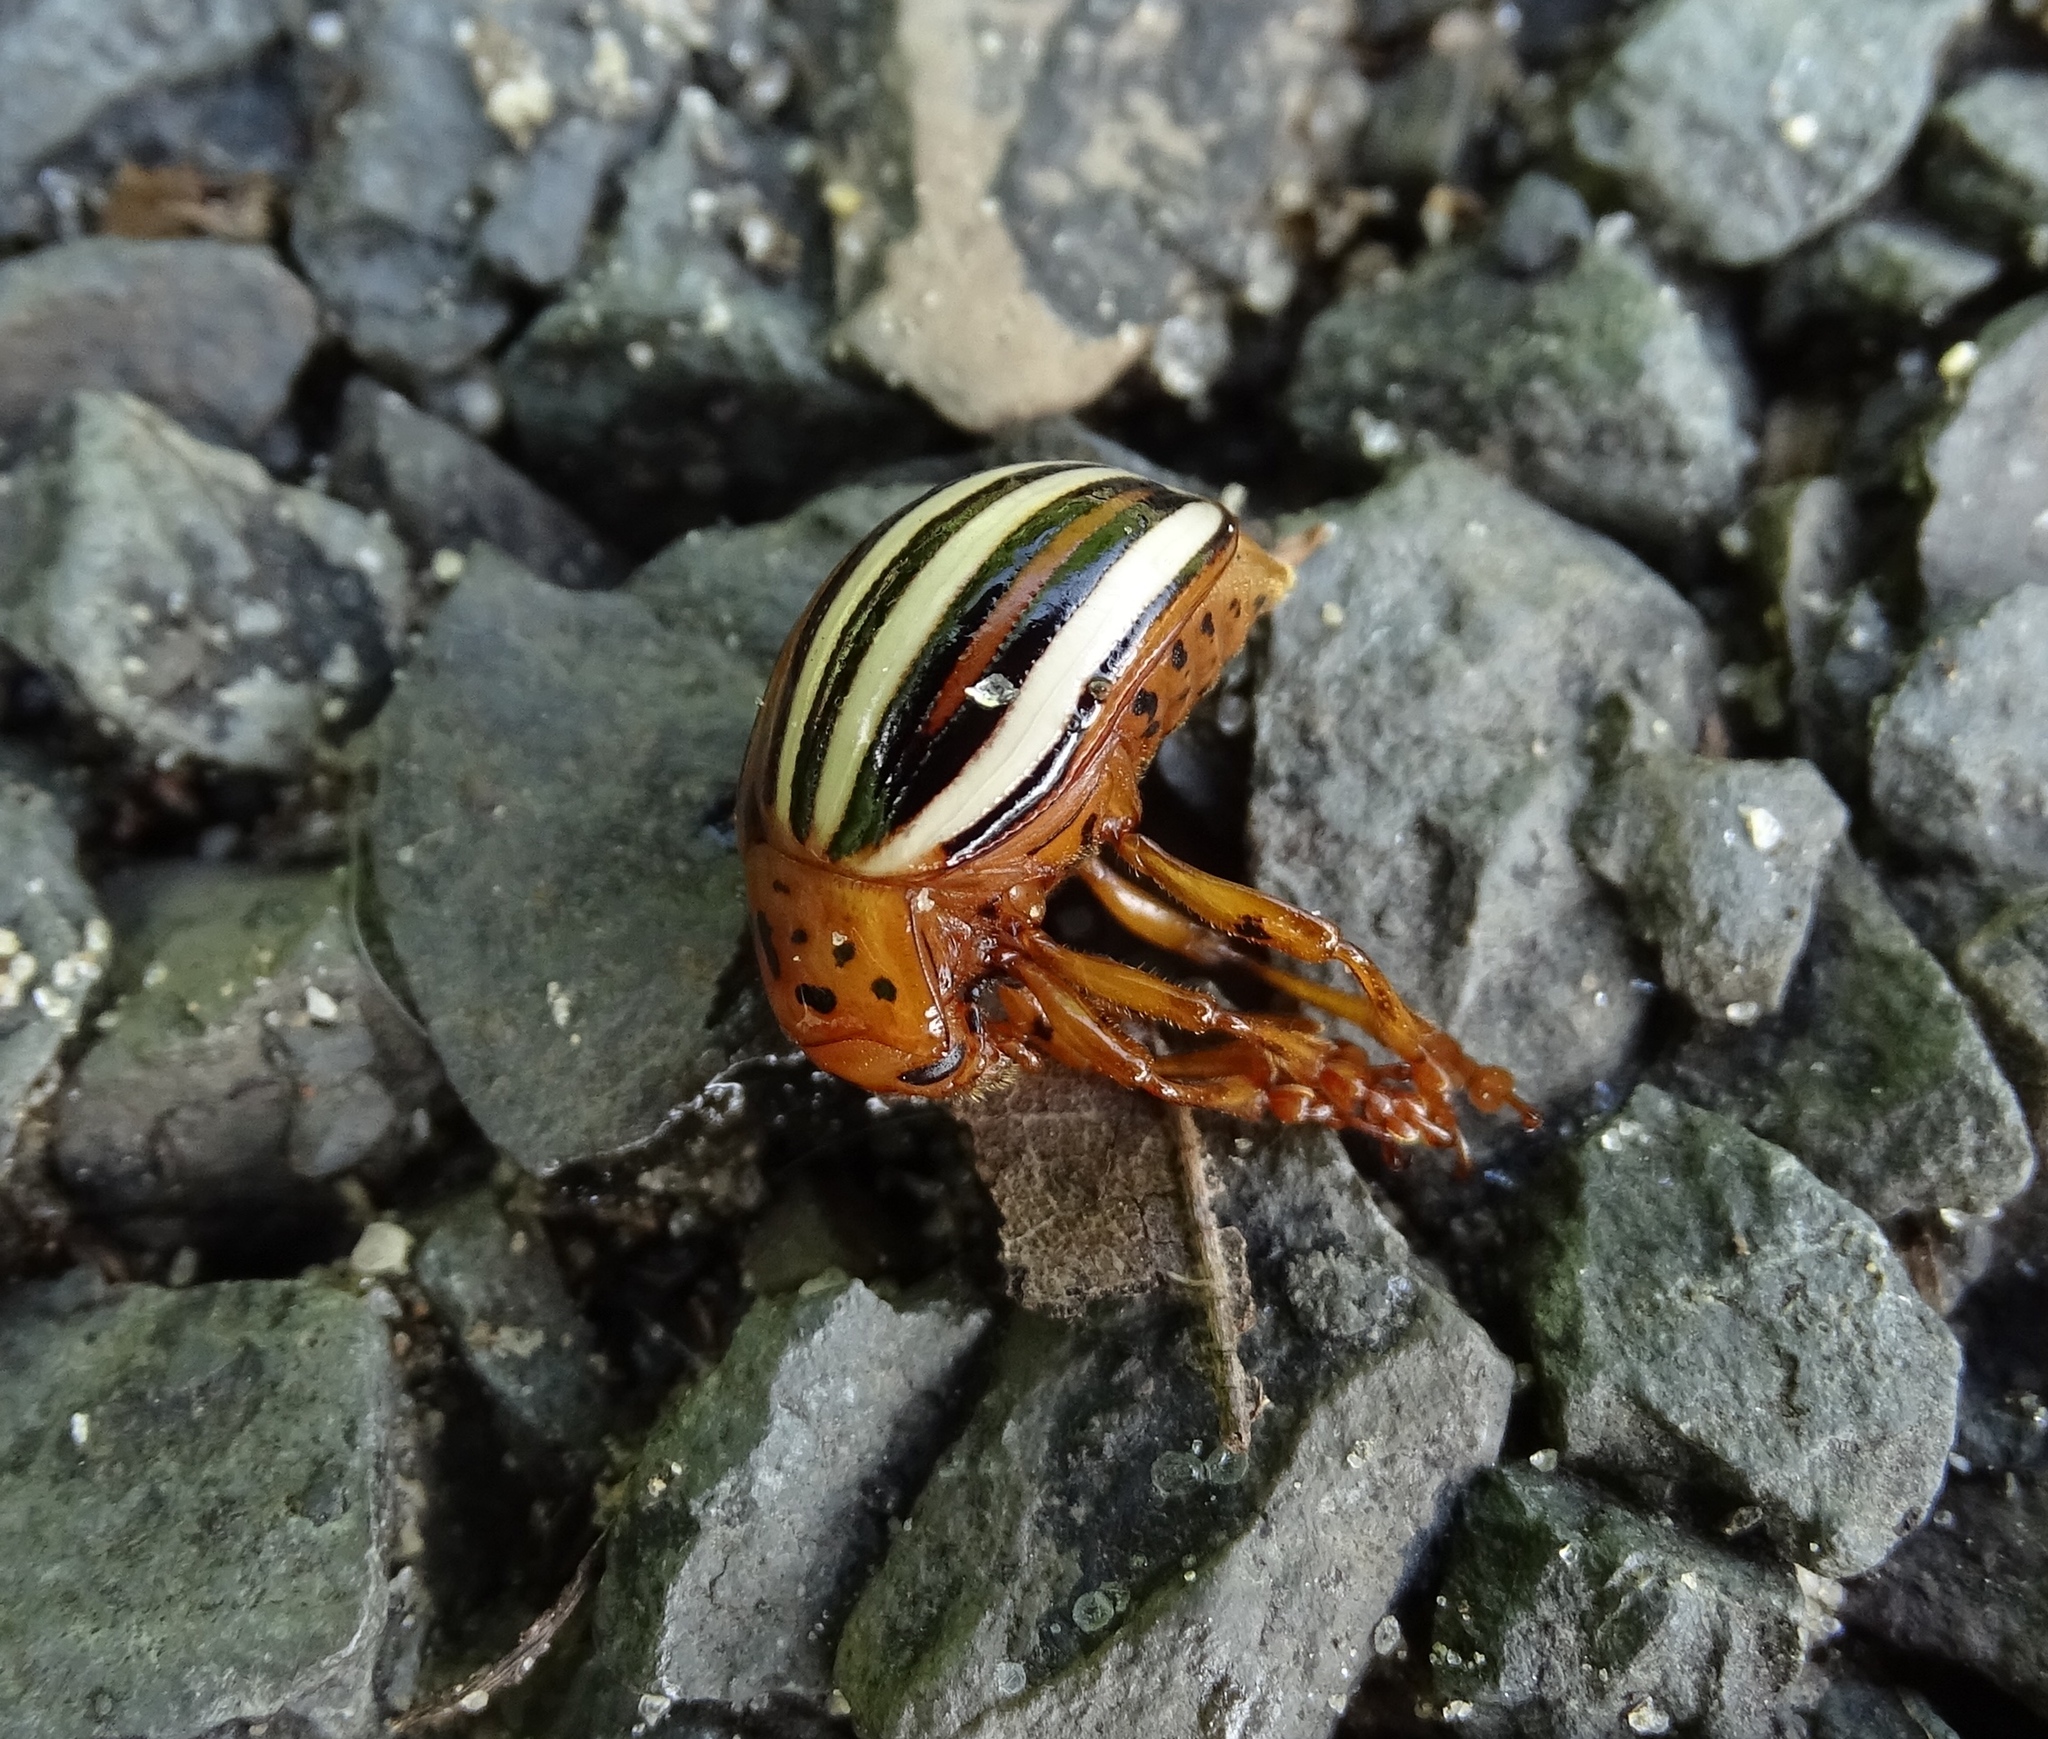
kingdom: Animalia
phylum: Arthropoda
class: Insecta
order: Coleoptera
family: Chrysomelidae
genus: Leptinotarsa
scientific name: Leptinotarsa juncta
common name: False potato beetle
